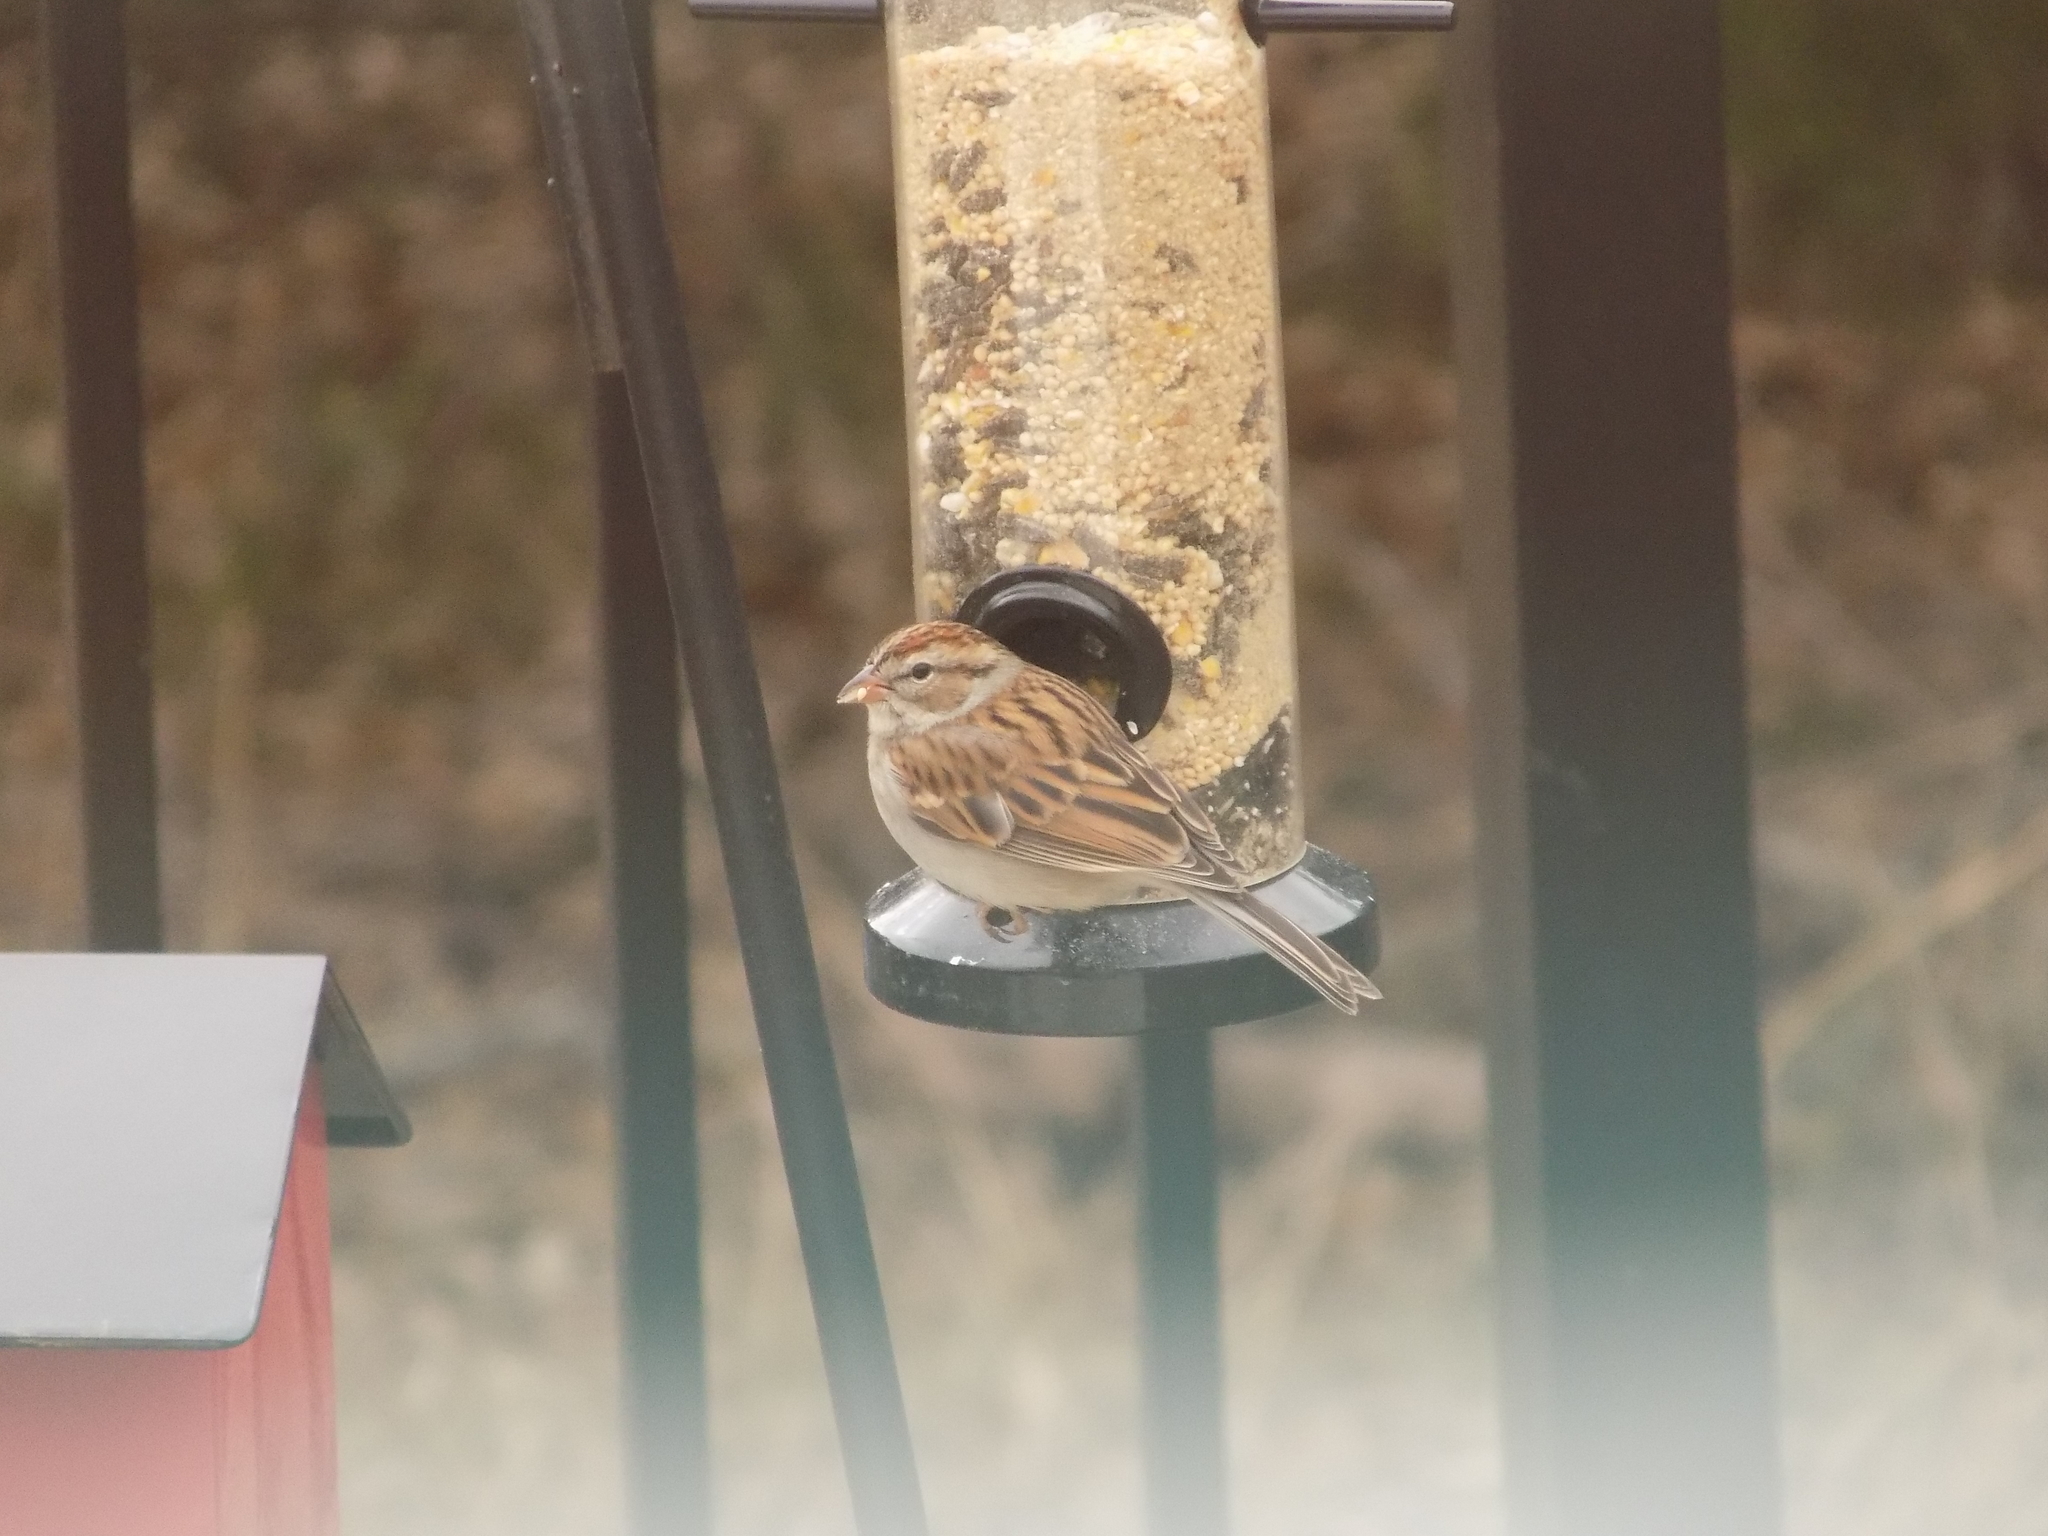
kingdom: Animalia
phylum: Chordata
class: Aves
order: Passeriformes
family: Passerellidae
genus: Spizella
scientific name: Spizella passerina
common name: Chipping sparrow
